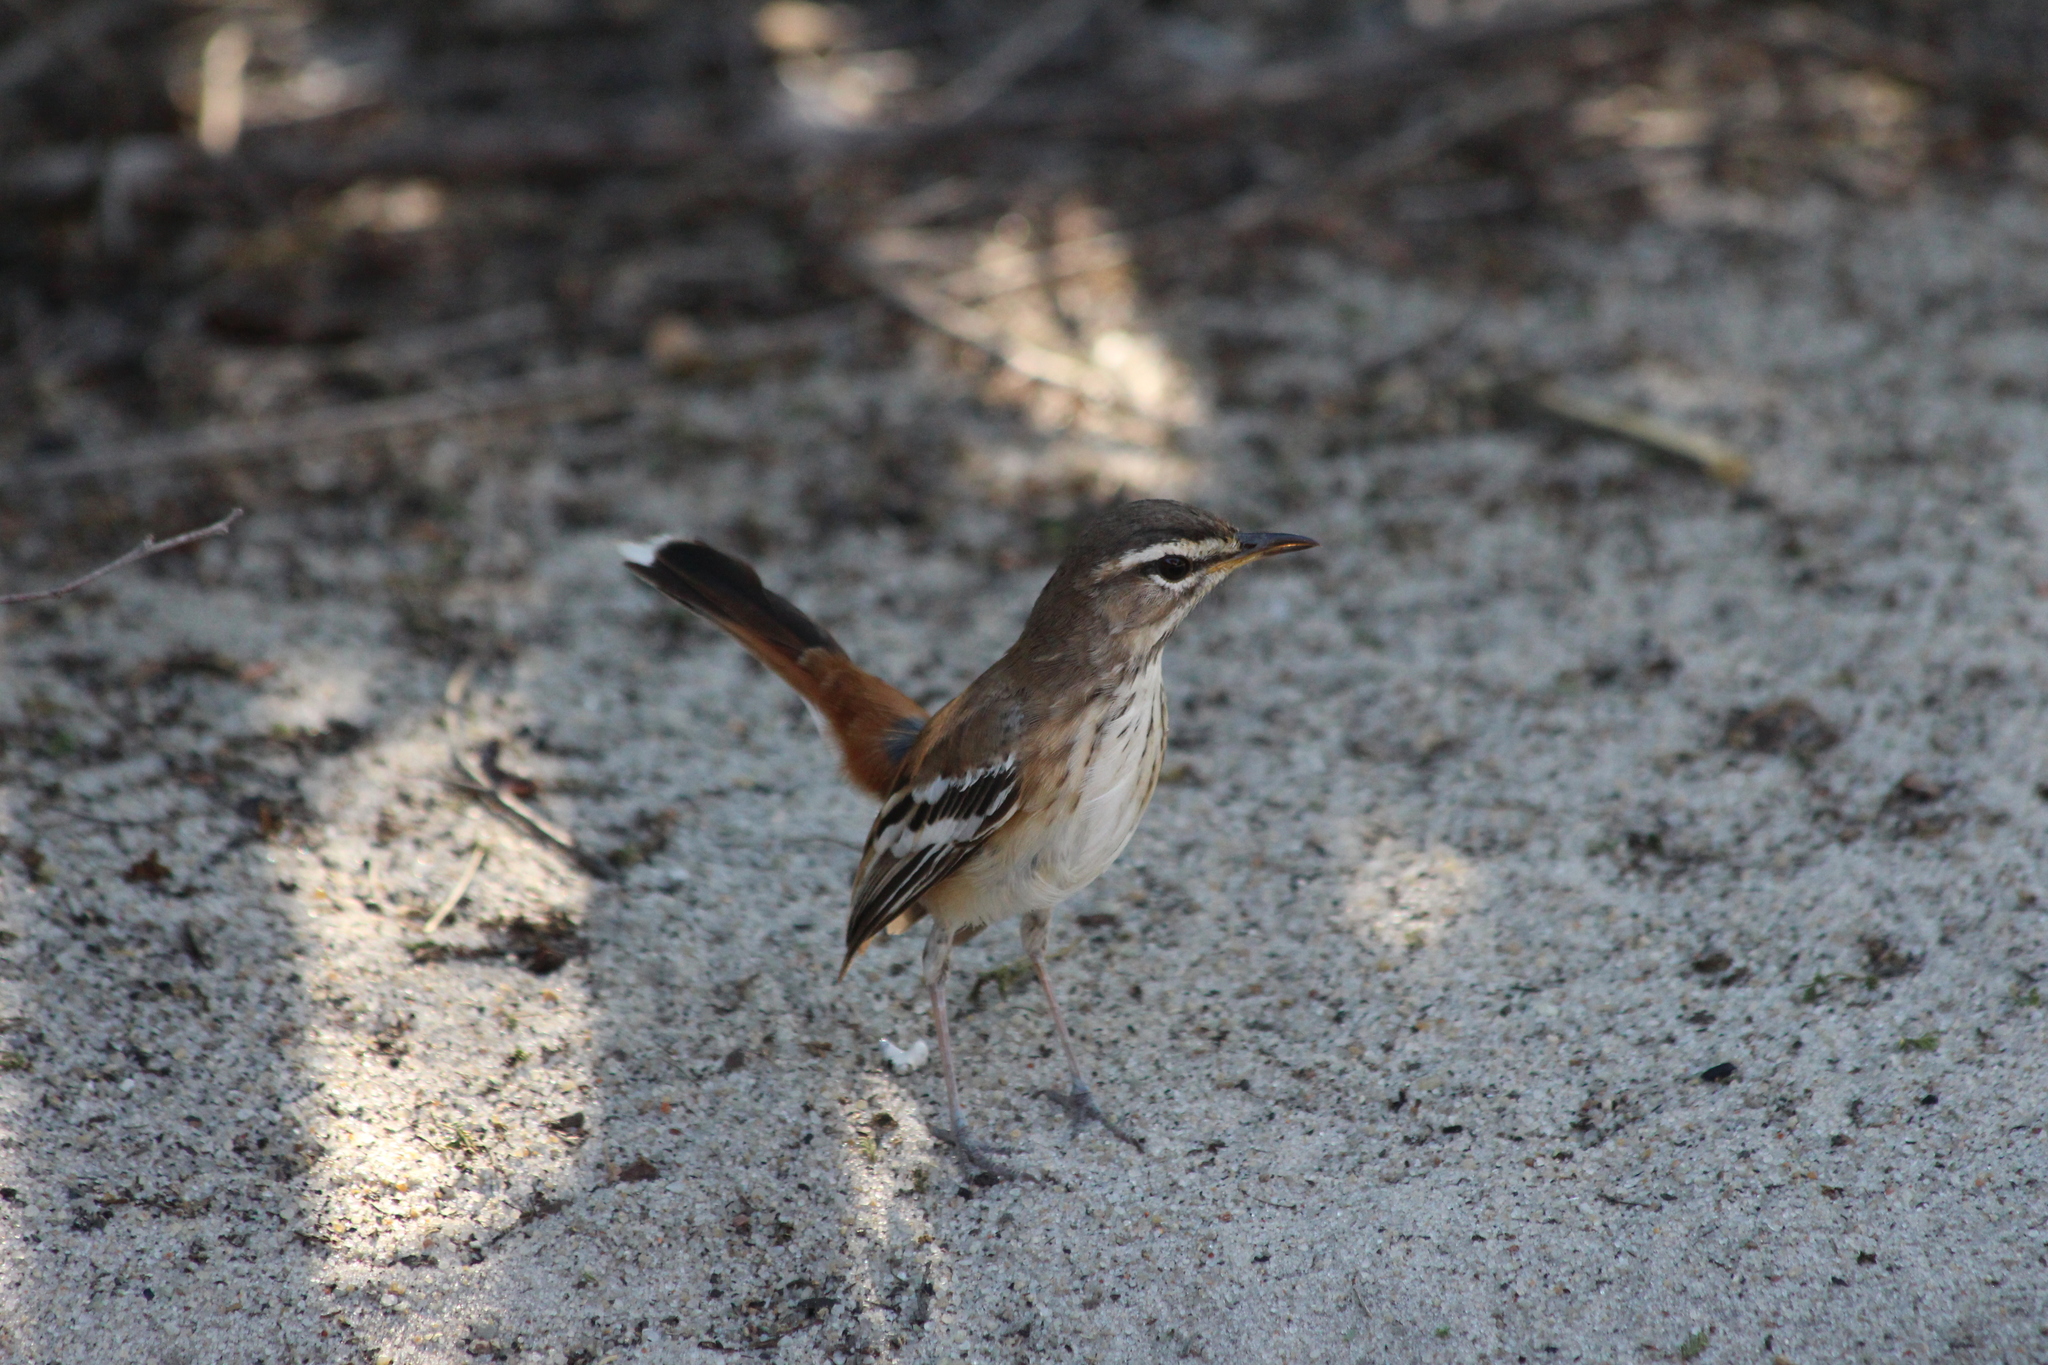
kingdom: Animalia
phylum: Chordata
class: Aves
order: Passeriformes
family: Muscicapidae
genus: Erythropygia
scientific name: Erythropygia leucophrys
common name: White-browed scrub robin
